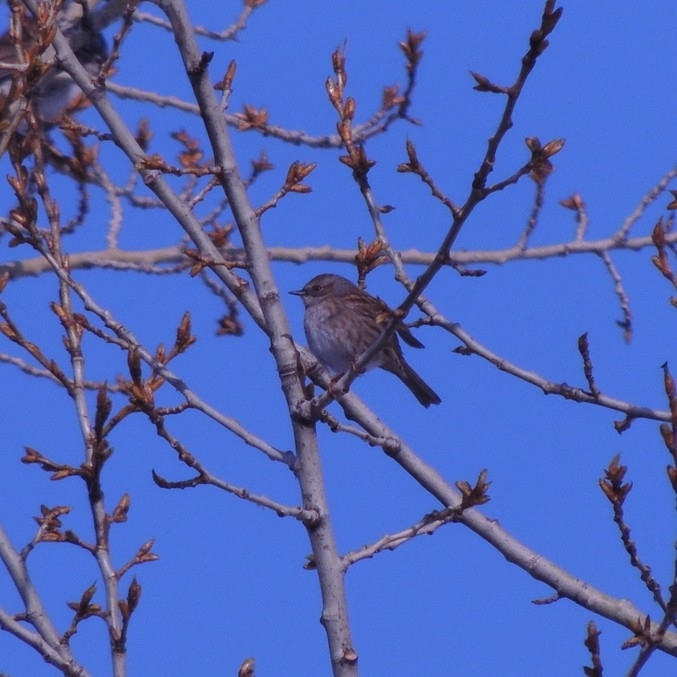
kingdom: Animalia
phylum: Chordata
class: Aves
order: Passeriformes
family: Prunellidae
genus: Prunella
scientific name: Prunella modularis
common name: Dunnock
